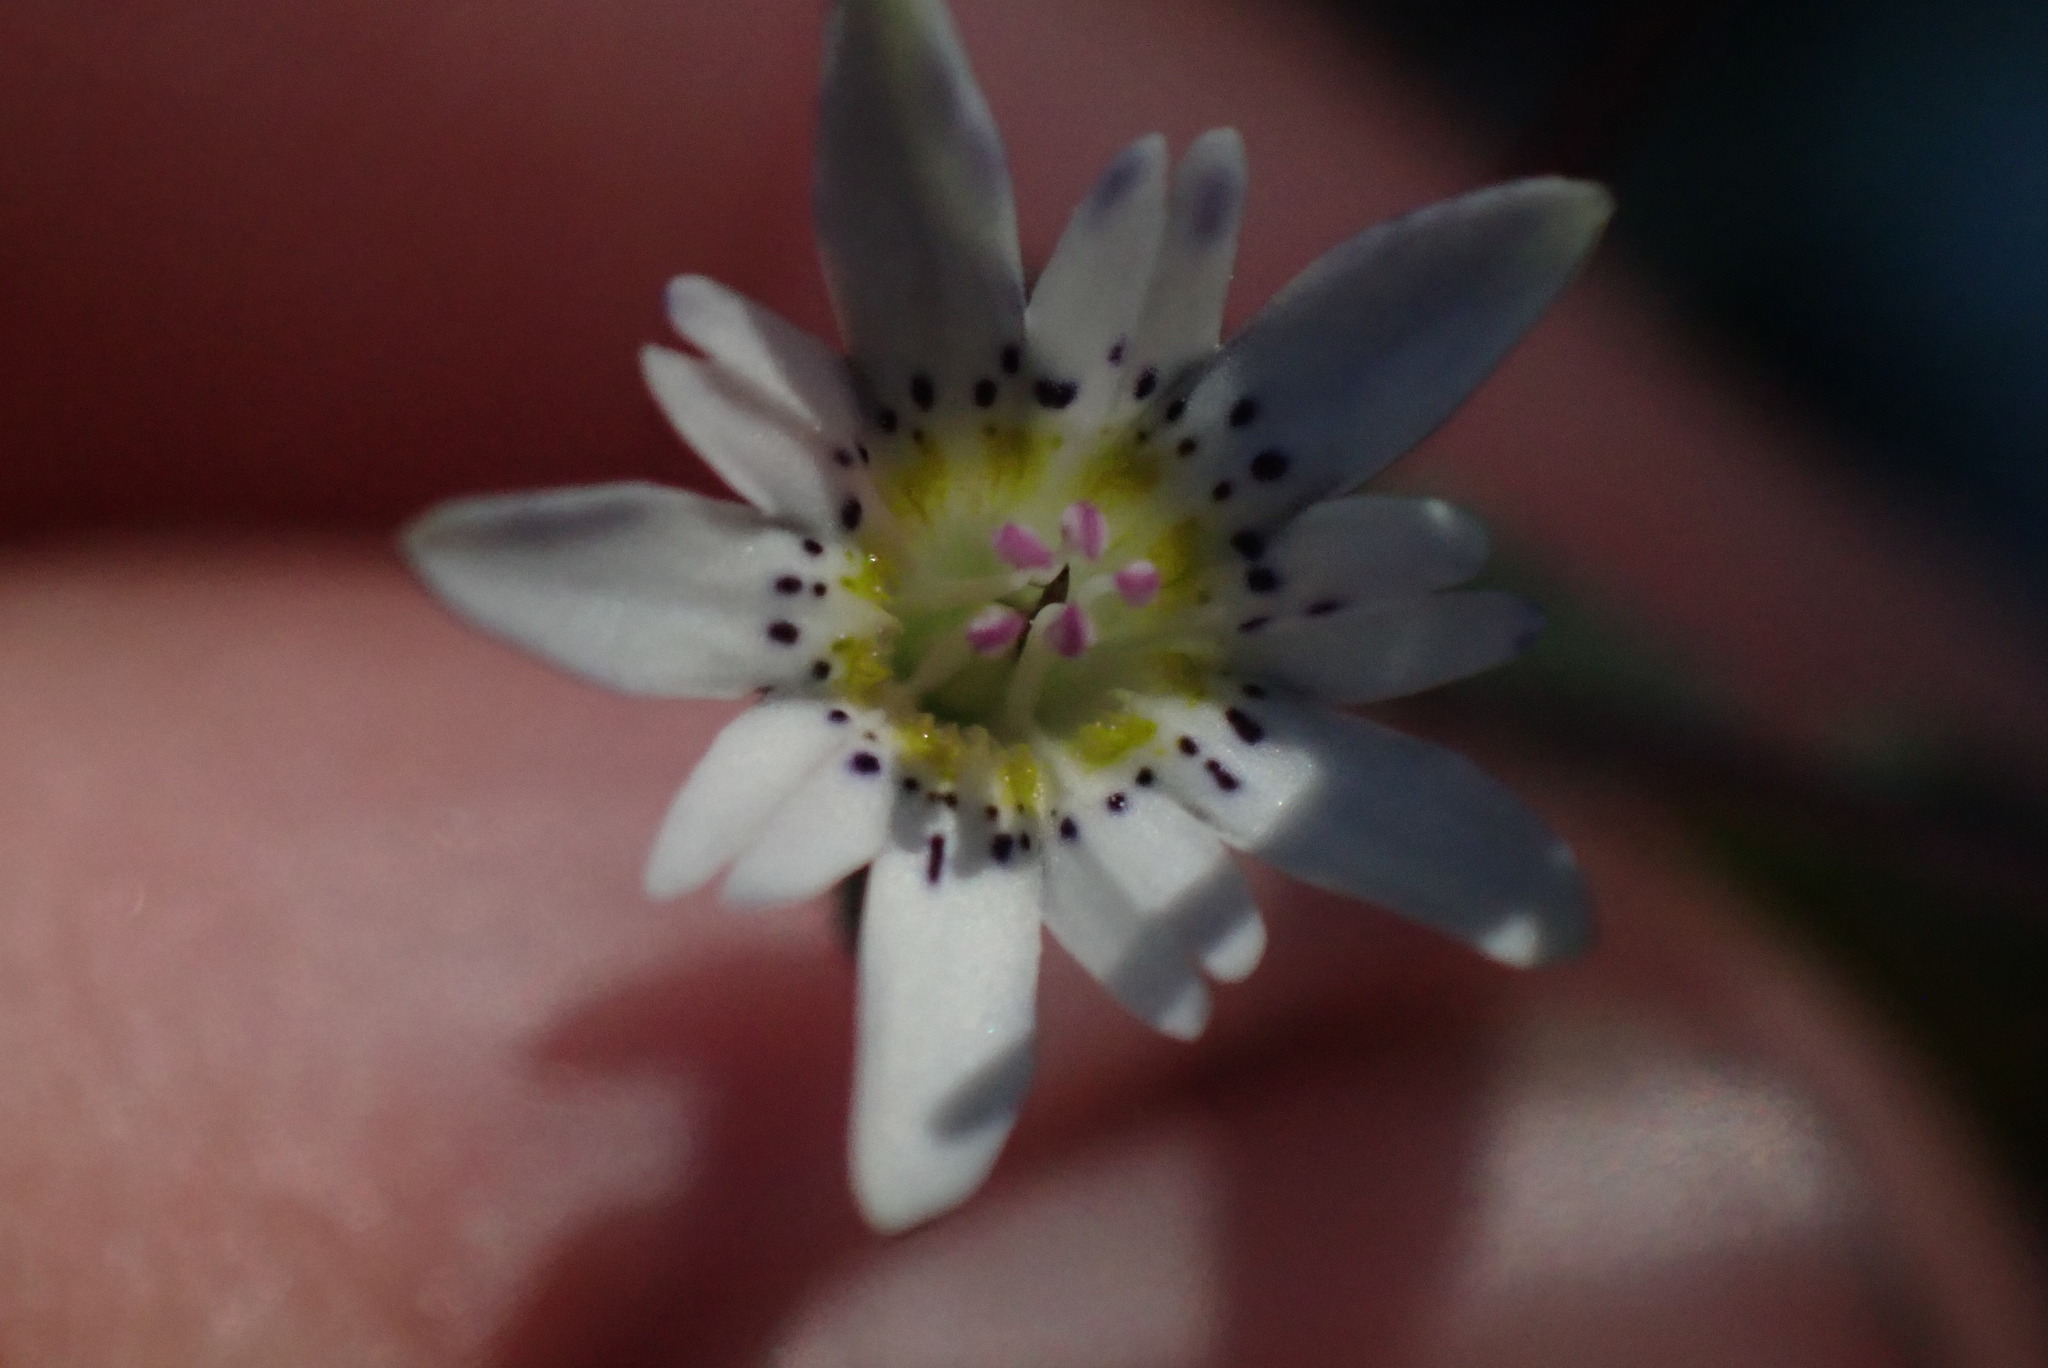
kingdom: Plantae
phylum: Tracheophyta
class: Magnoliopsida
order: Gentianales
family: Gentianaceae
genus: Gentiana
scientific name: Gentiana douglasiana
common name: Swamp gentian
